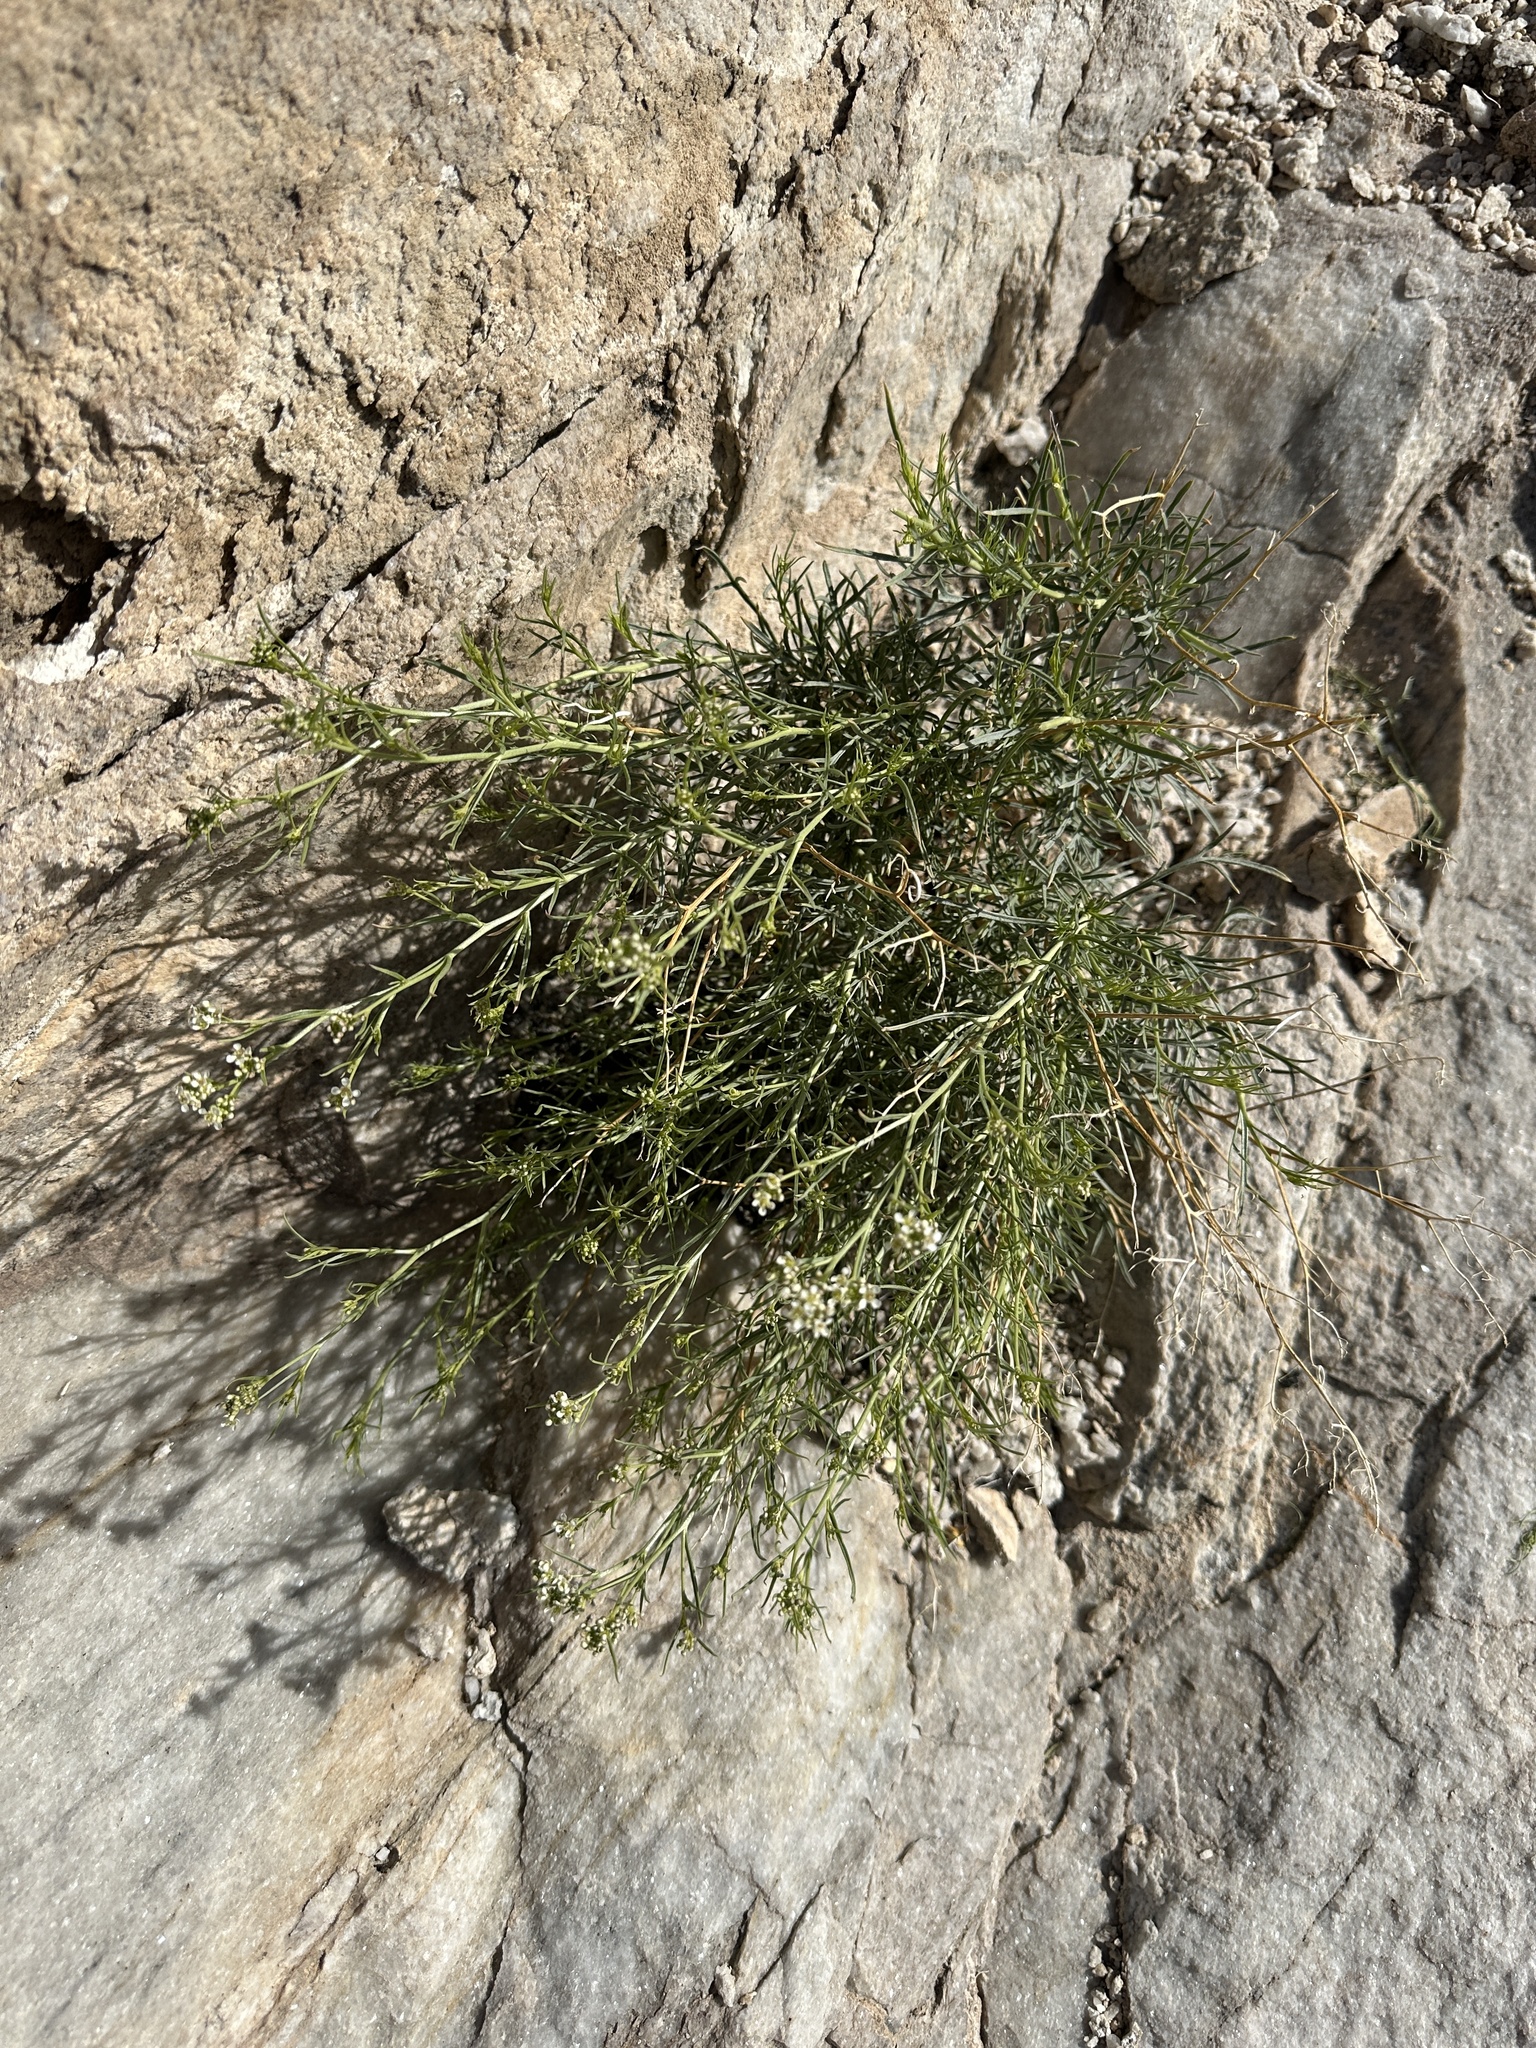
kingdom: Plantae
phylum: Tracheophyta
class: Magnoliopsida
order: Brassicales
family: Brassicaceae
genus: Lepidium
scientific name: Lepidium fremontii
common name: Fremont's pepperwort
